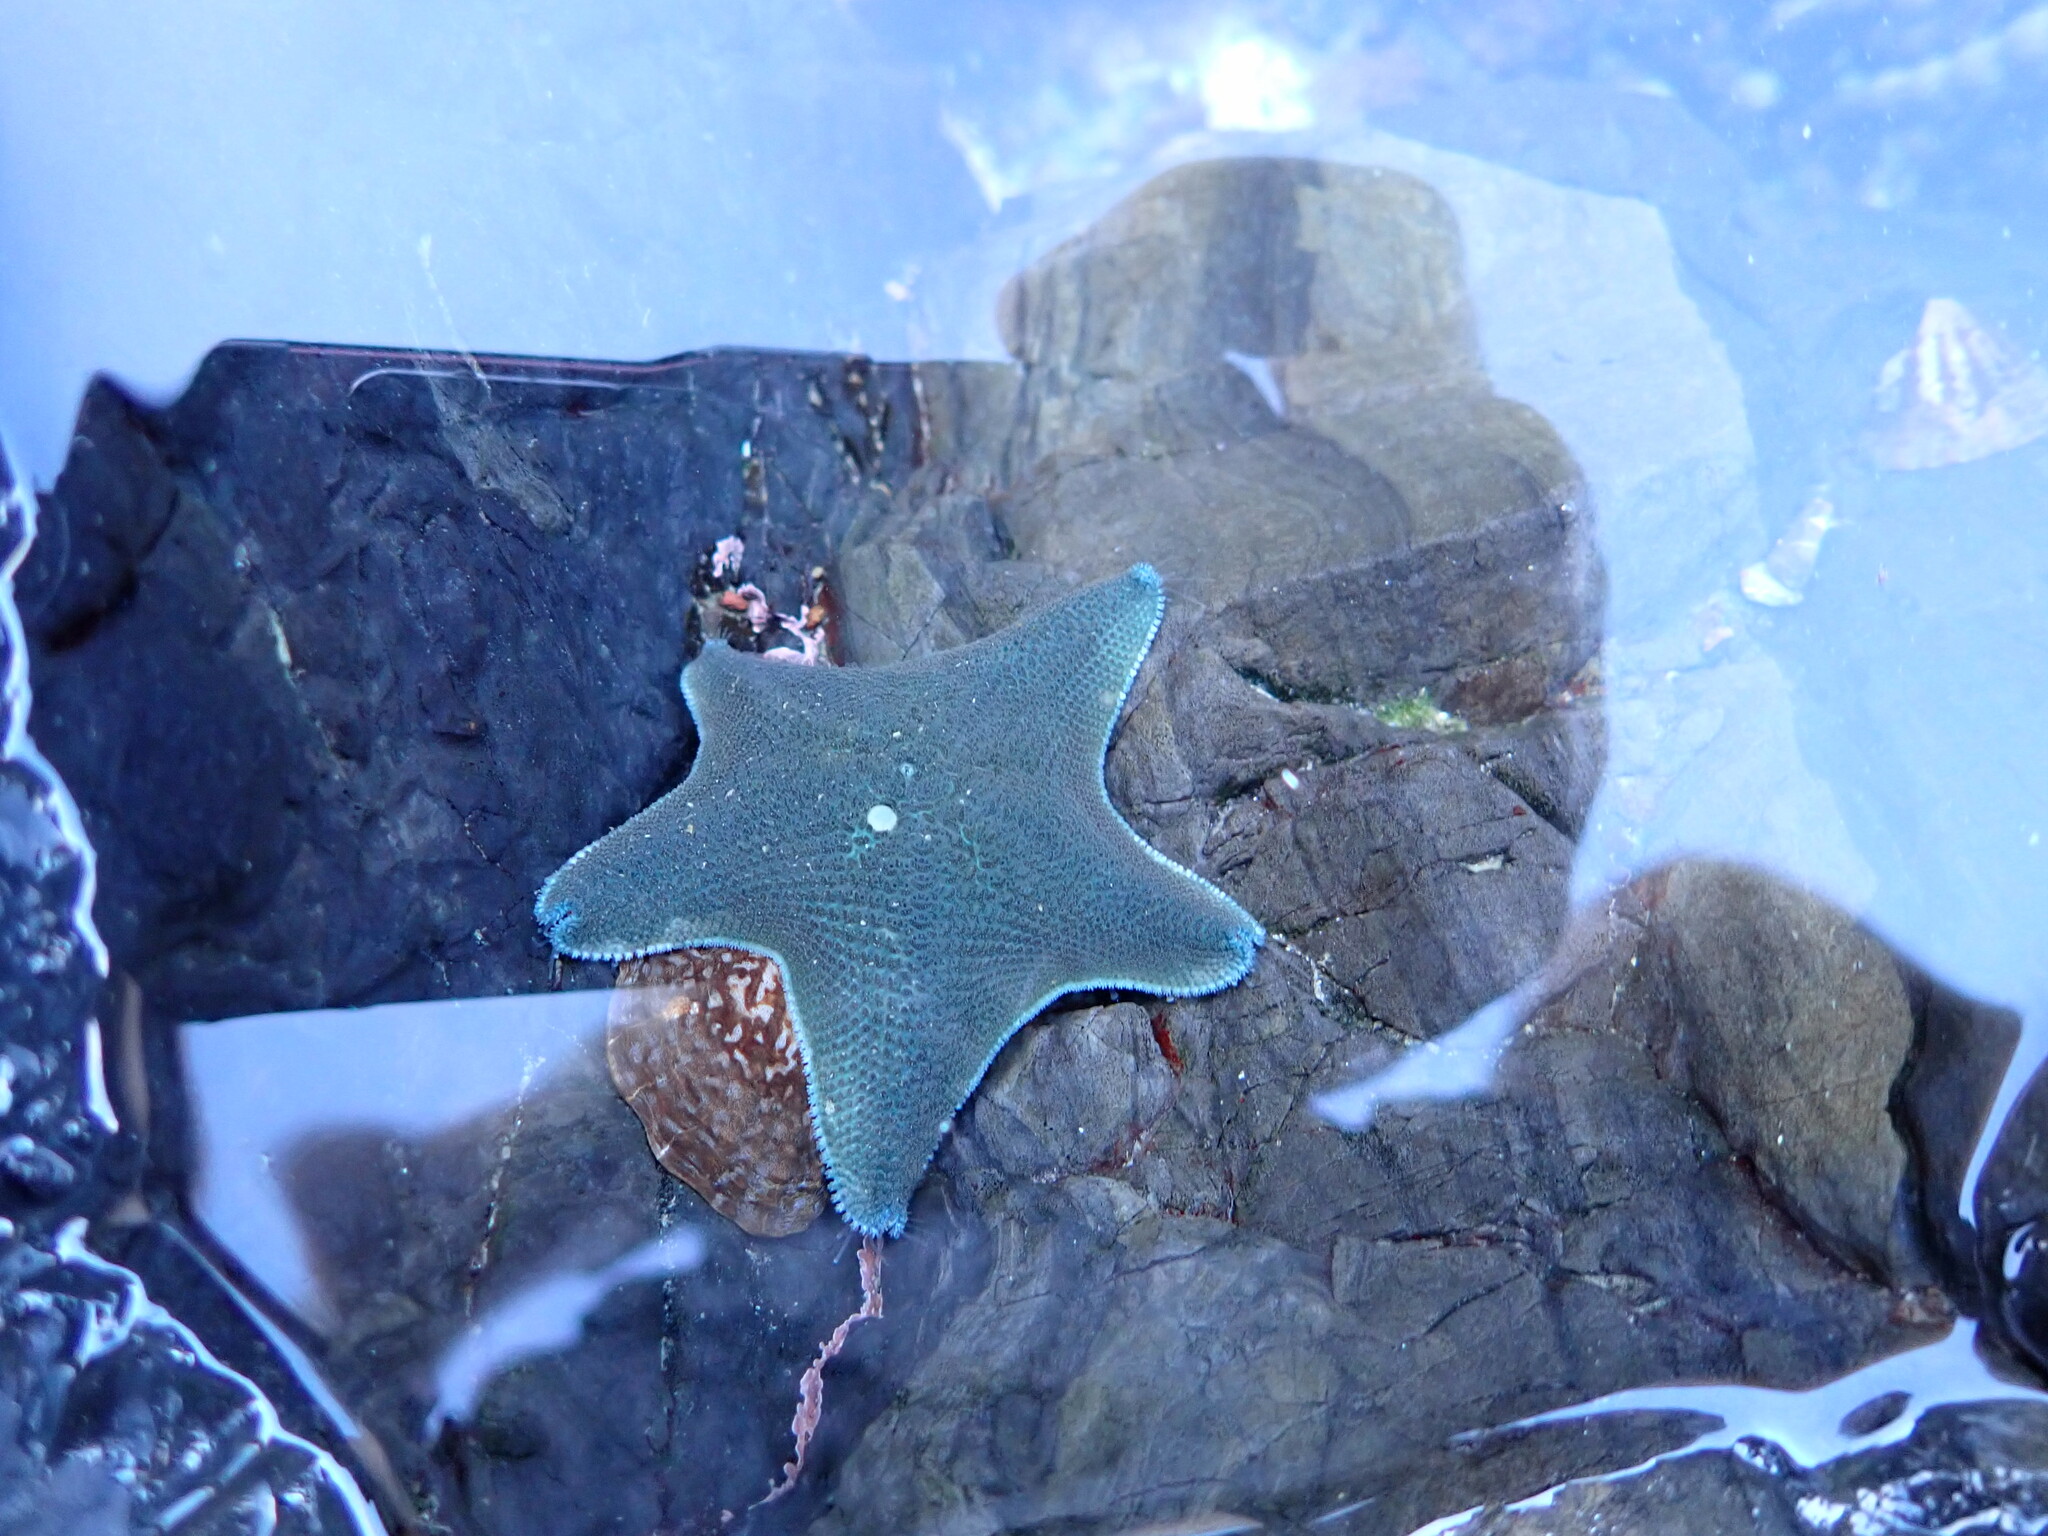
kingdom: Animalia
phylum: Echinodermata
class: Asteroidea
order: Valvatida
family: Asterinidae
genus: Patiriella
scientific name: Patiriella regularis
